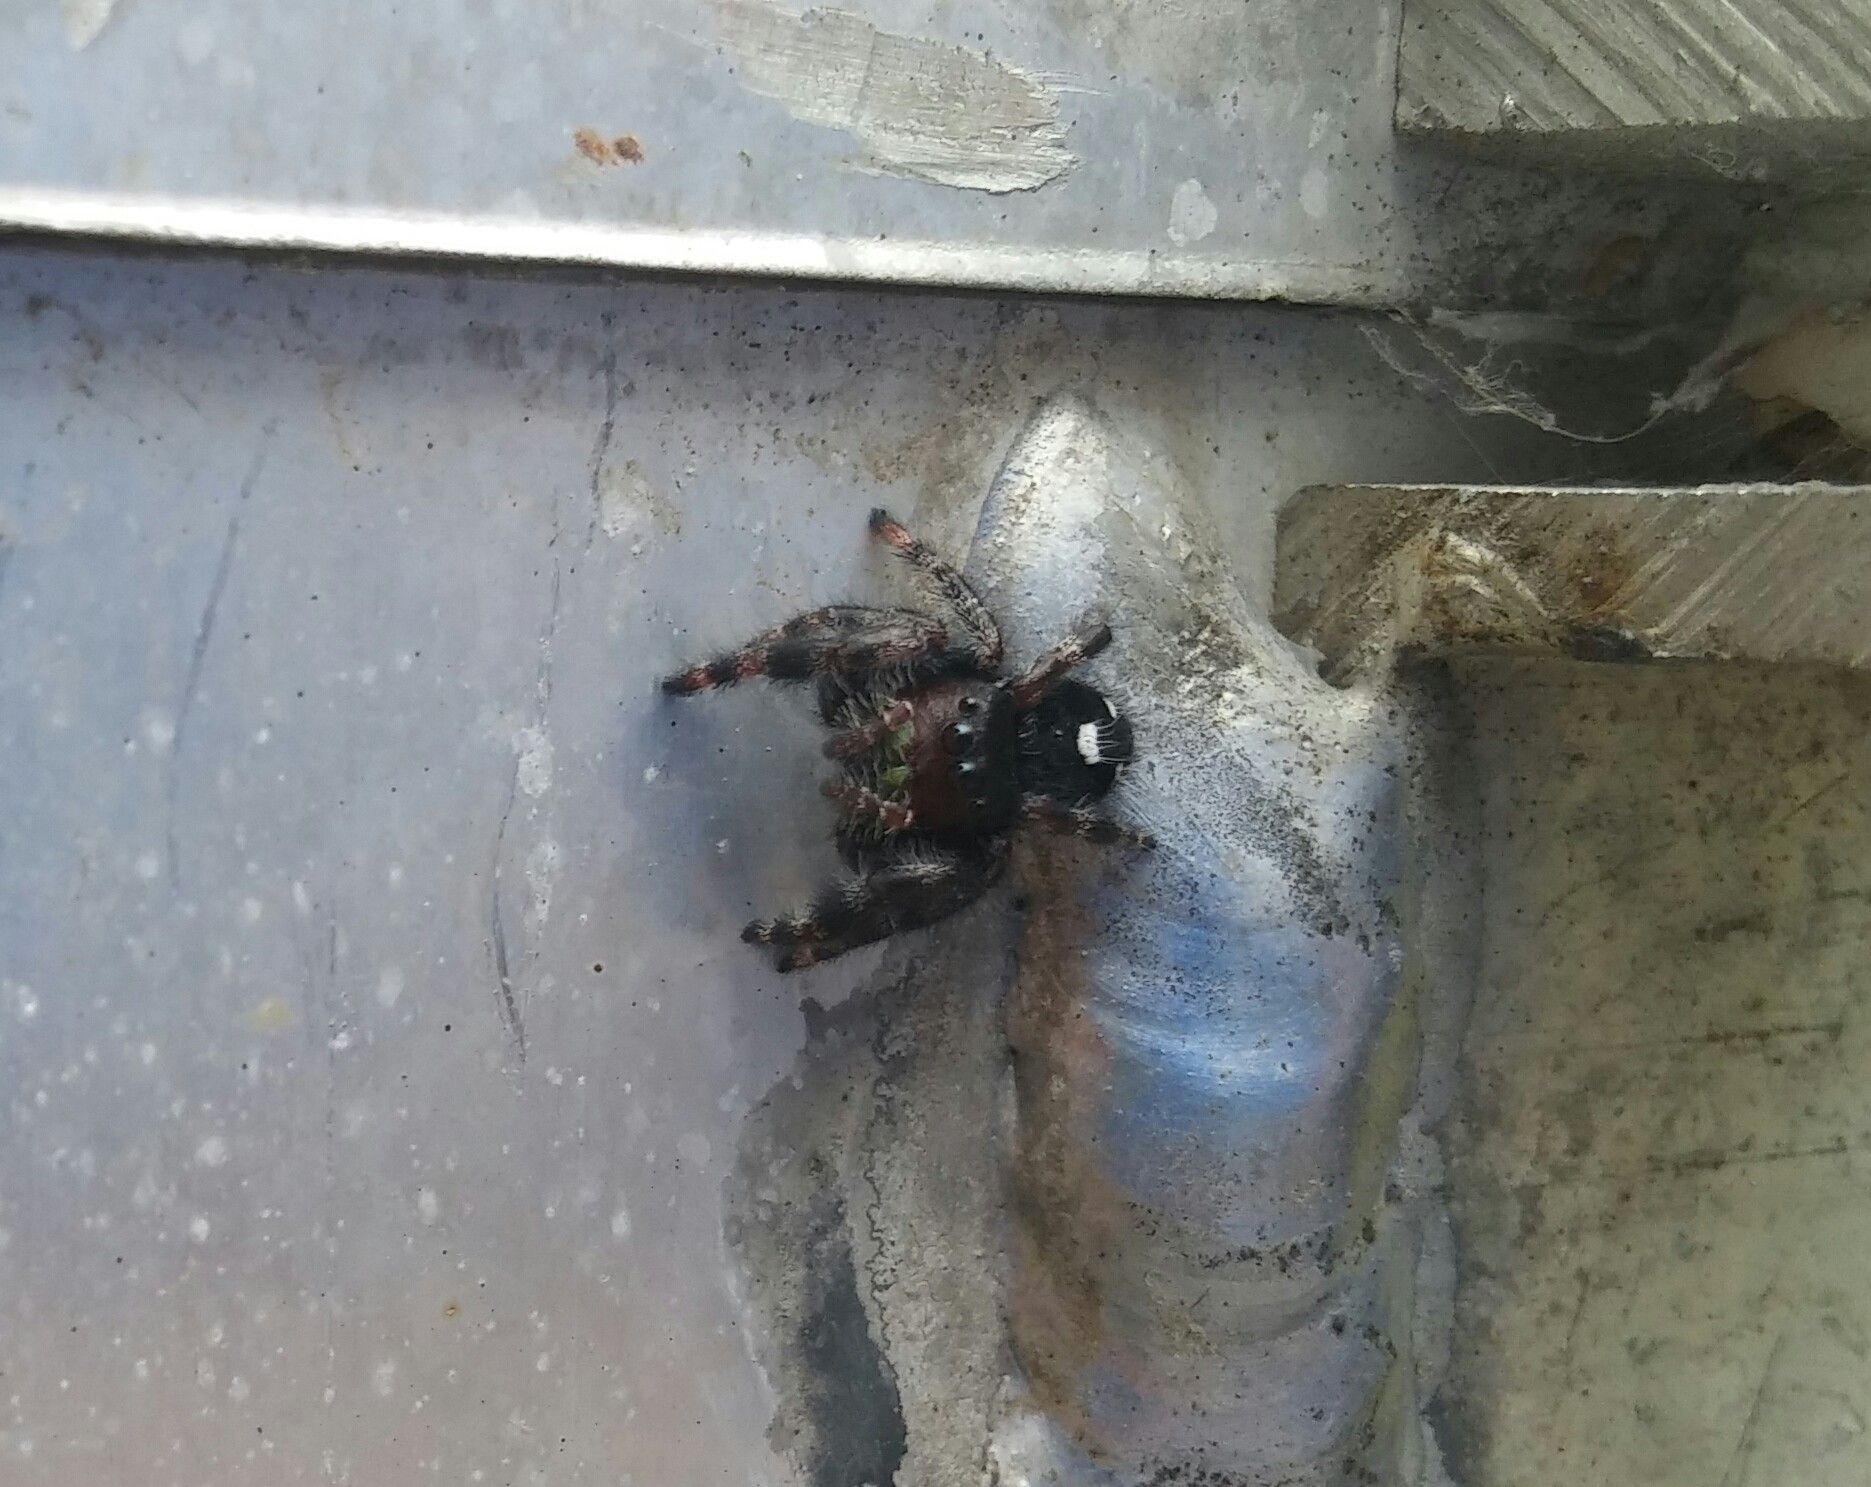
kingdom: Animalia
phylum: Arthropoda
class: Arachnida
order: Araneae
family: Salticidae
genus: Phidippus
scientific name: Phidippus audax
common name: Bold jumper
